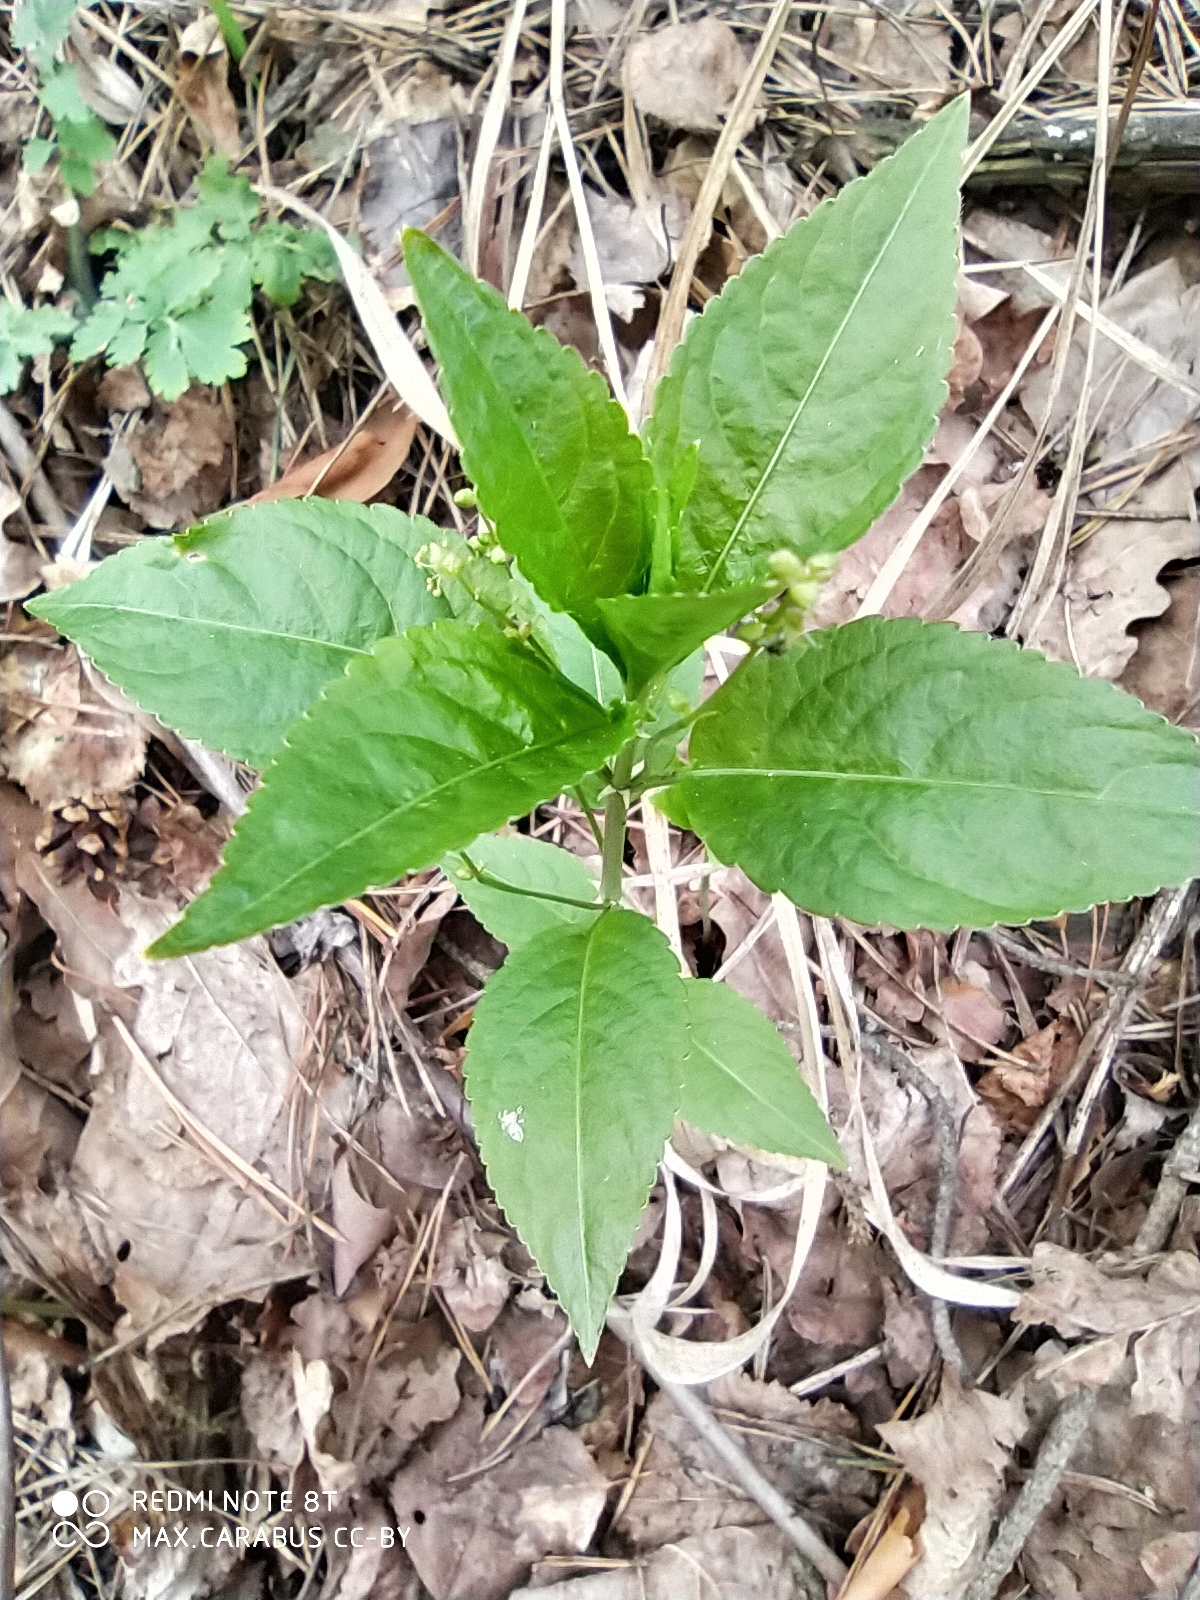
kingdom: Plantae
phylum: Tracheophyta
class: Magnoliopsida
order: Malpighiales
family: Euphorbiaceae
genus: Mercurialis
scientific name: Mercurialis perennis
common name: Dog mercury
